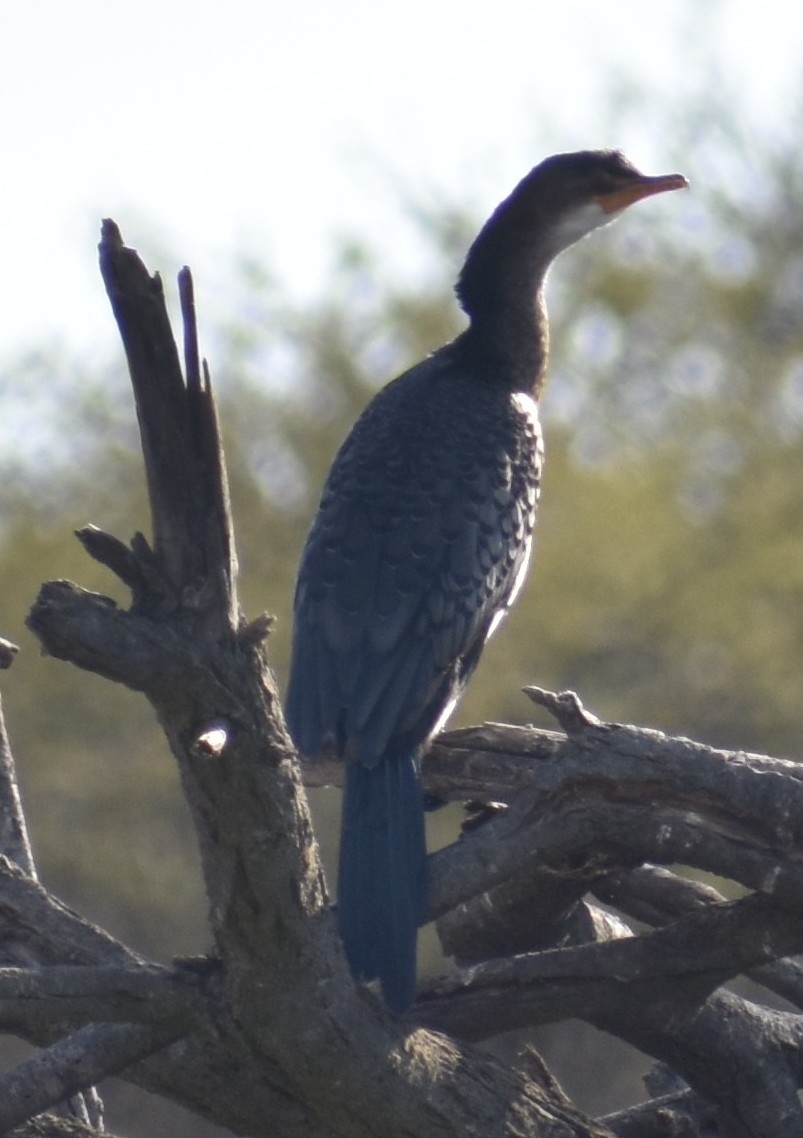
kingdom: Animalia
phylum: Chordata
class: Aves
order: Suliformes
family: Phalacrocoracidae
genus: Microcarbo
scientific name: Microcarbo africanus
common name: Long-tailed cormorant
